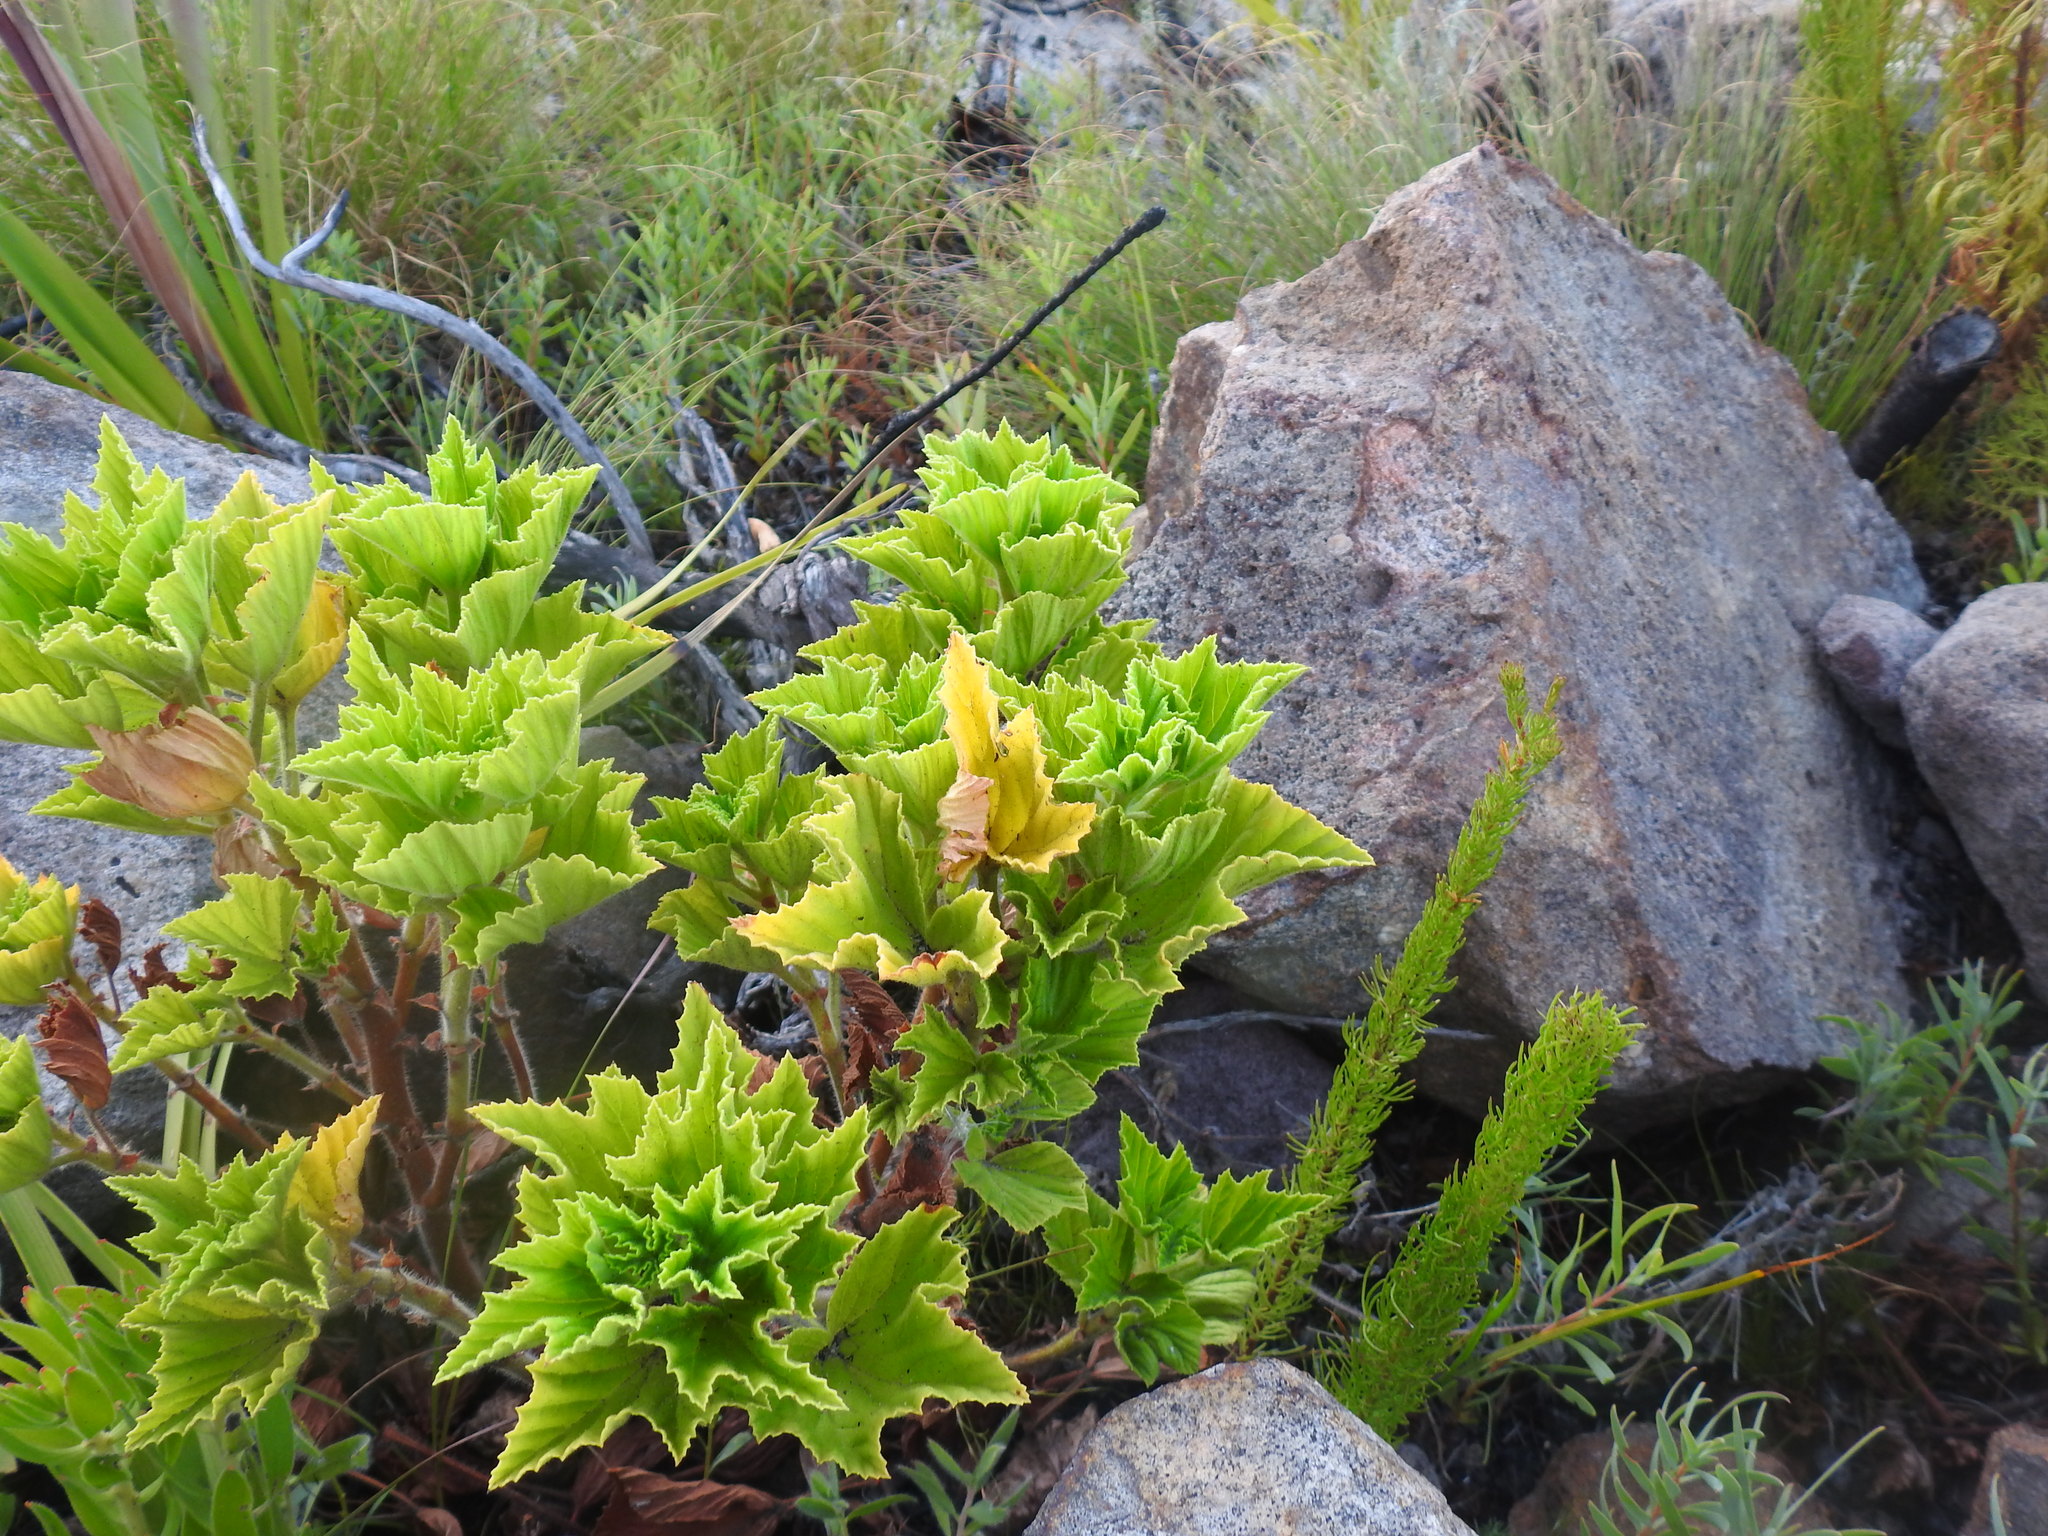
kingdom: Plantae
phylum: Tracheophyta
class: Magnoliopsida
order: Geraniales
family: Geraniaceae
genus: Pelargonium
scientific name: Pelargonium cucullatum
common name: Tree pelargonium
